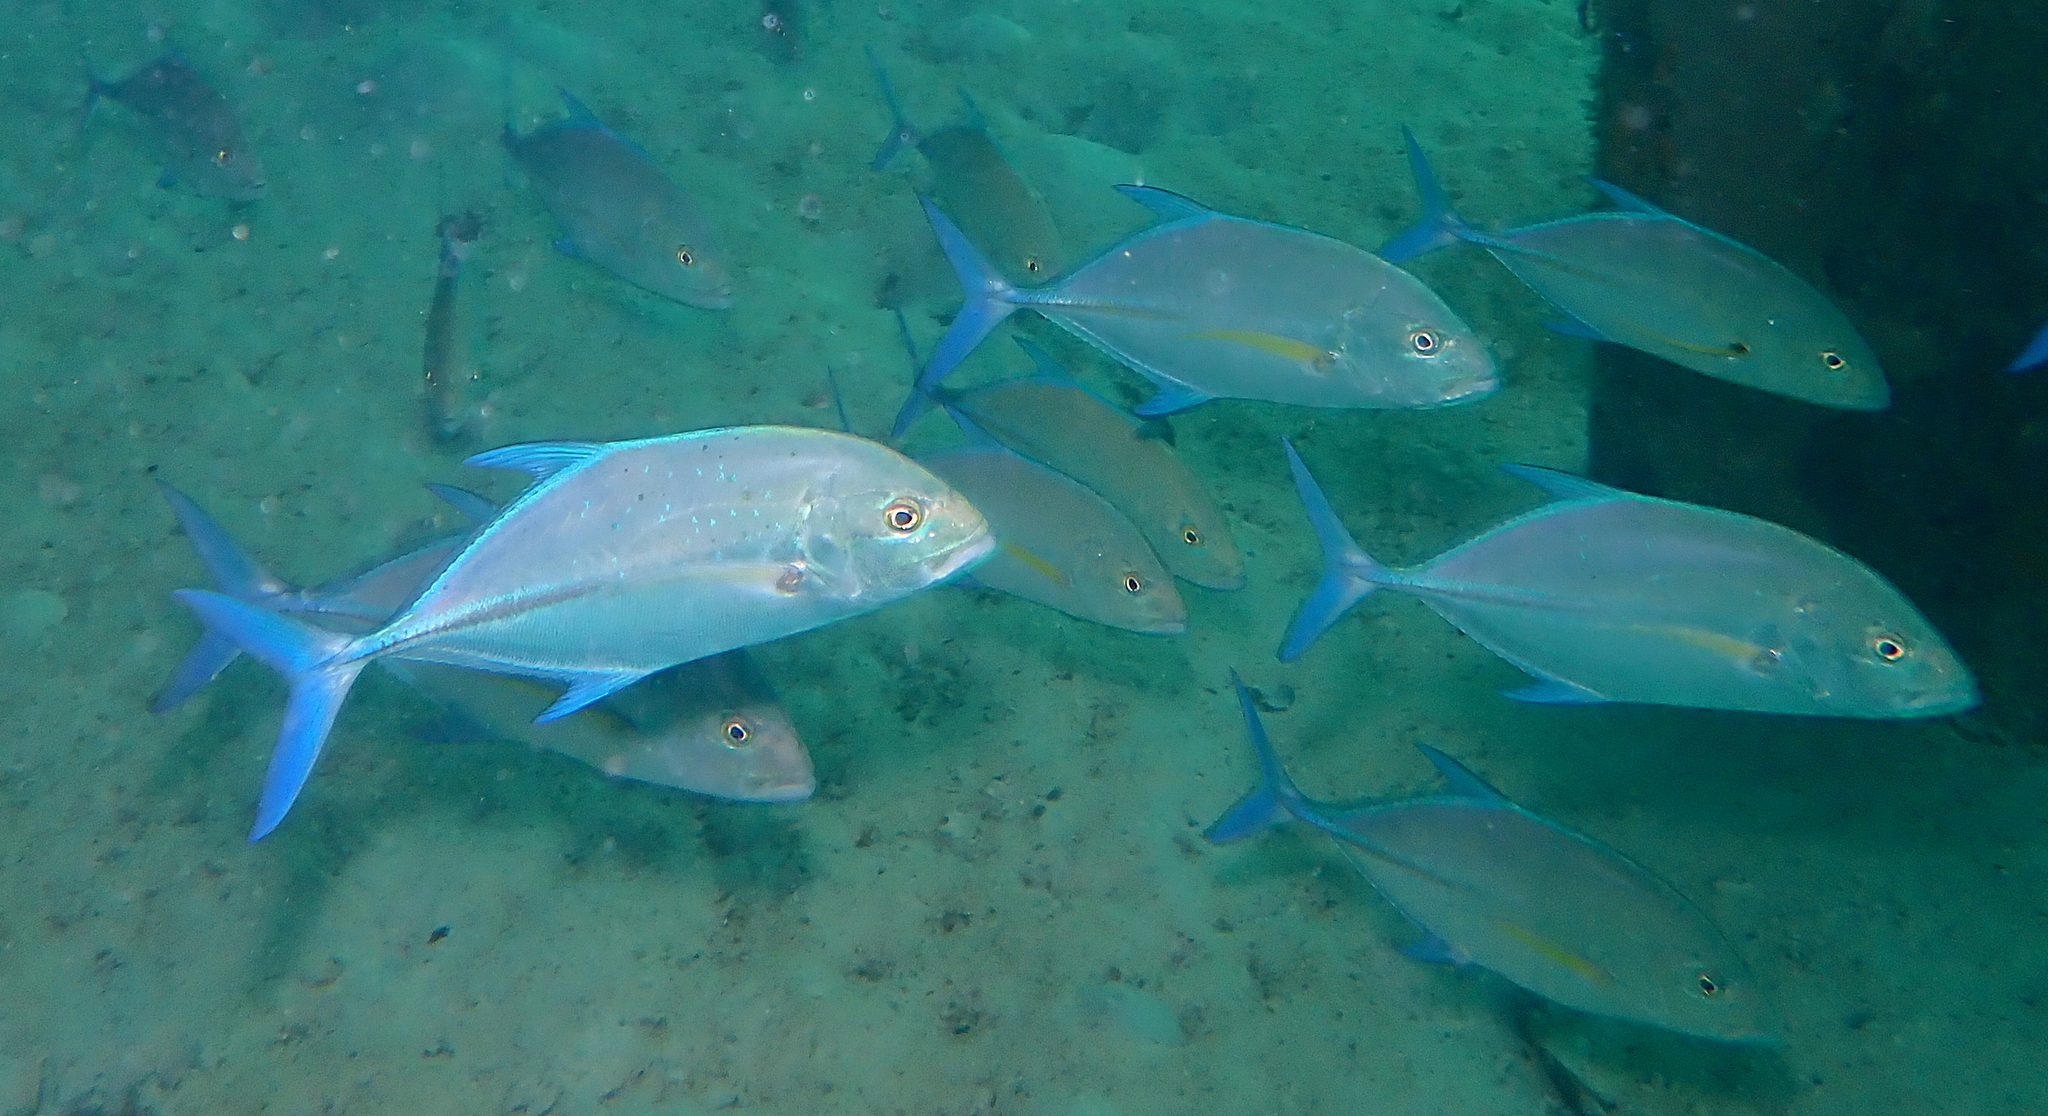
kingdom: Animalia
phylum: Chordata
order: Perciformes
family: Carangidae
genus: Caranx
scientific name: Caranx melampygus
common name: Bluefin trevally
